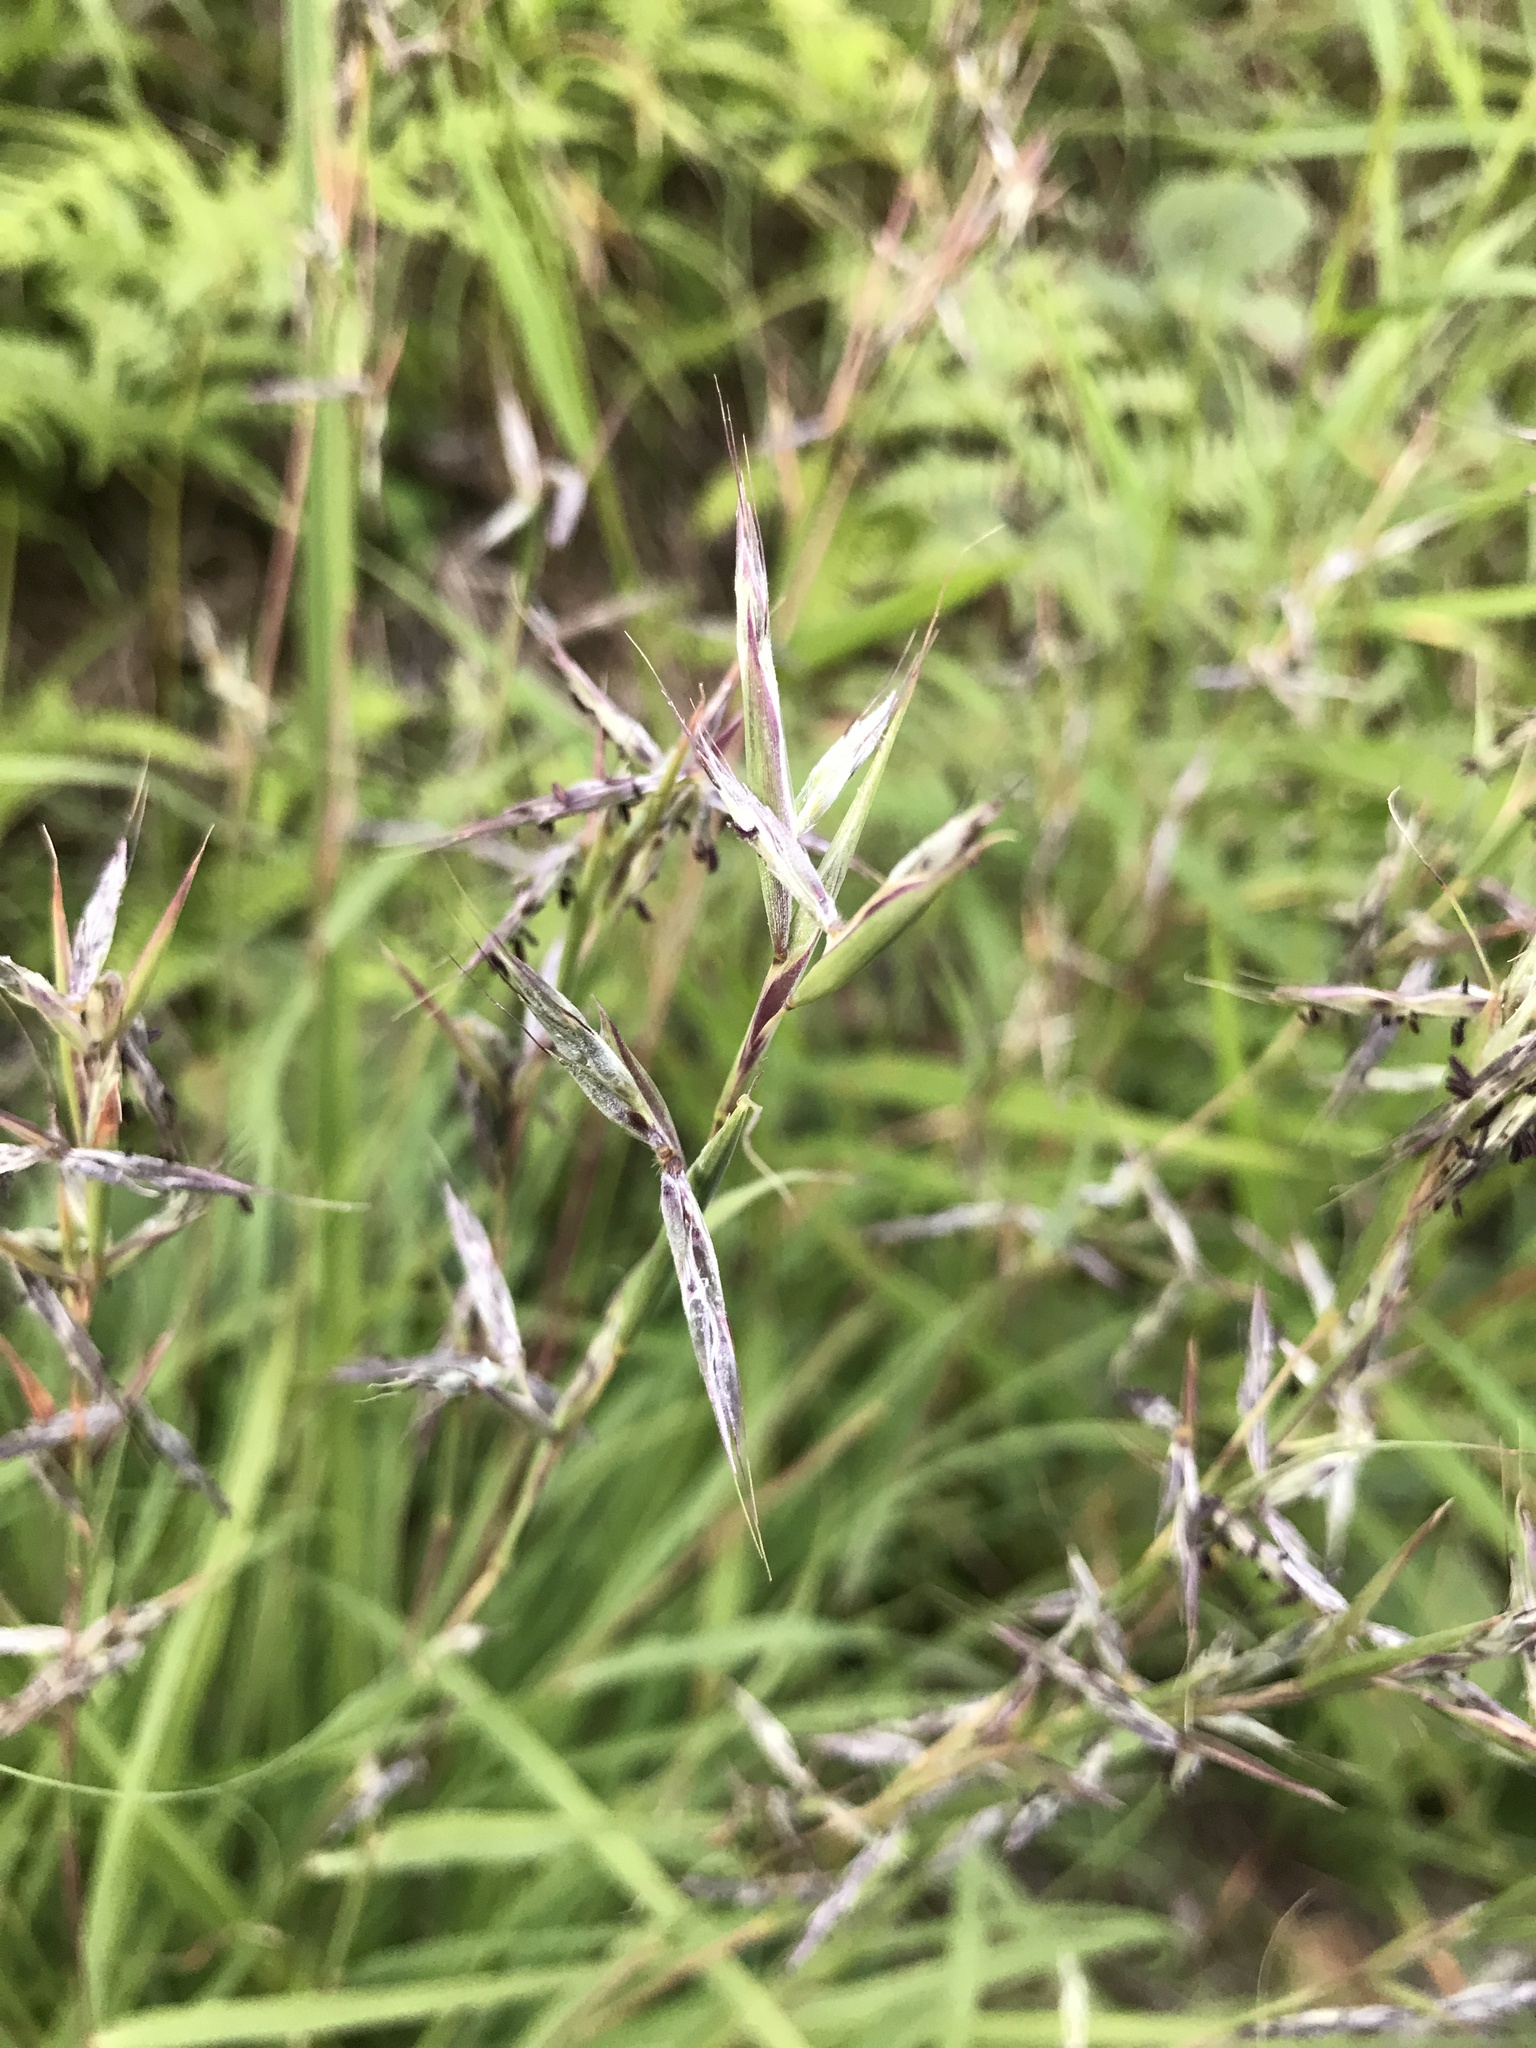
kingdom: Plantae
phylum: Tracheophyta
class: Liliopsida
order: Poales
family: Poaceae
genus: Cymbopogon
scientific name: Cymbopogon tortilis
